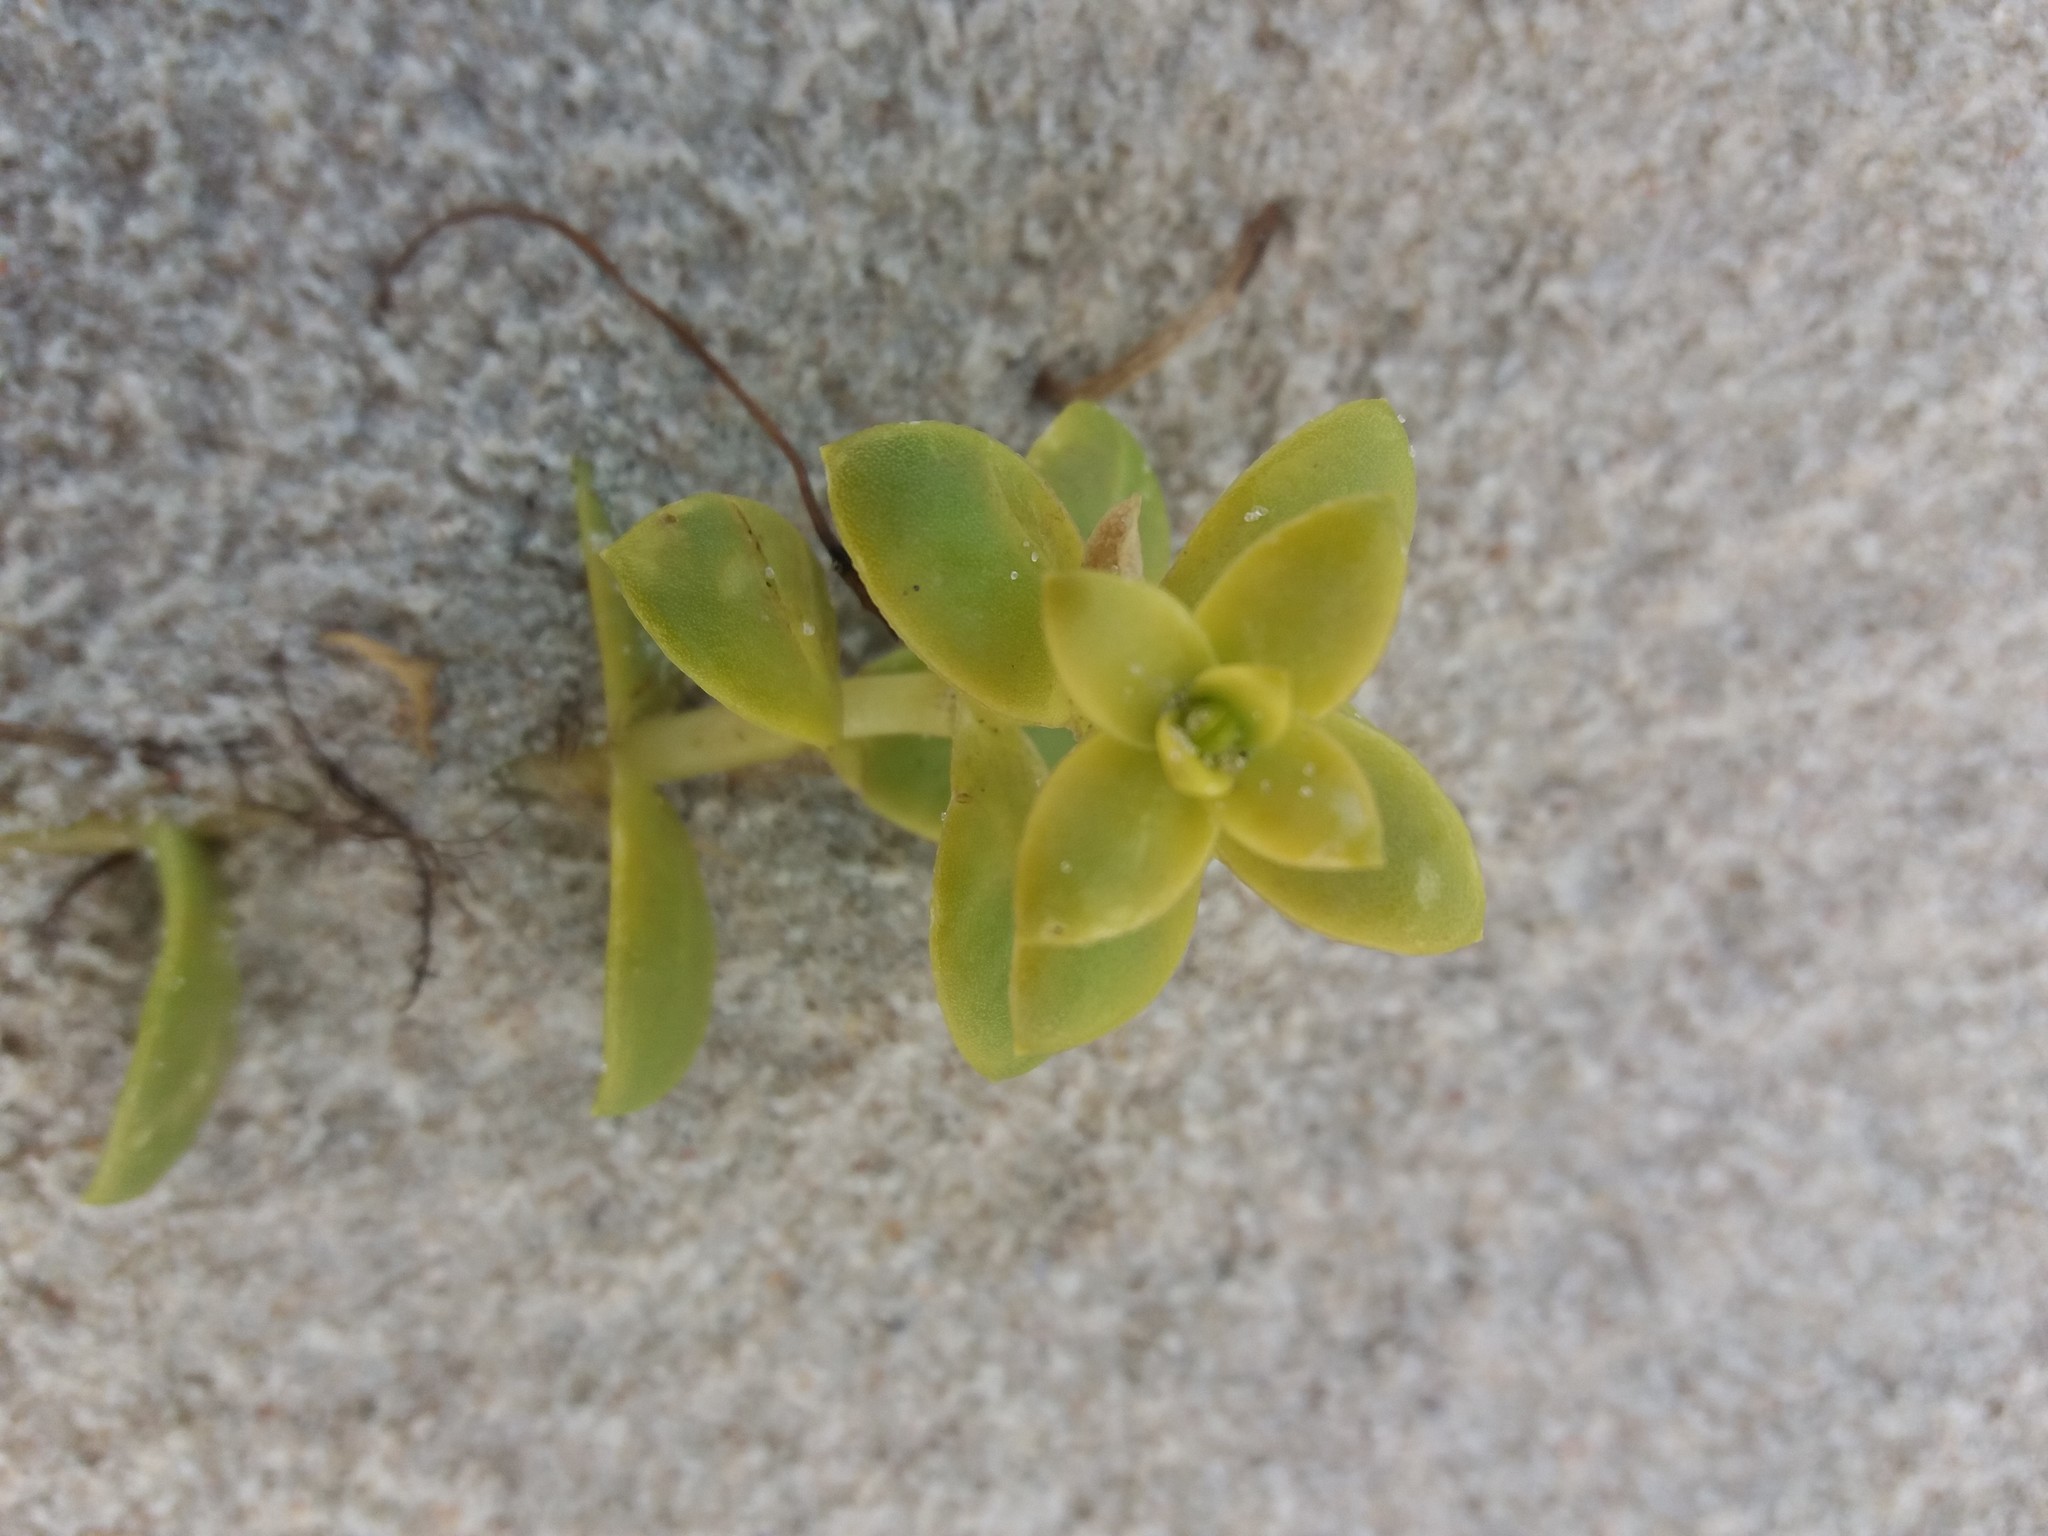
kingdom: Plantae
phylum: Tracheophyta
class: Magnoliopsida
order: Caryophyllales
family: Caryophyllaceae
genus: Honckenya
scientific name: Honckenya peploides
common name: Sea sandwort
